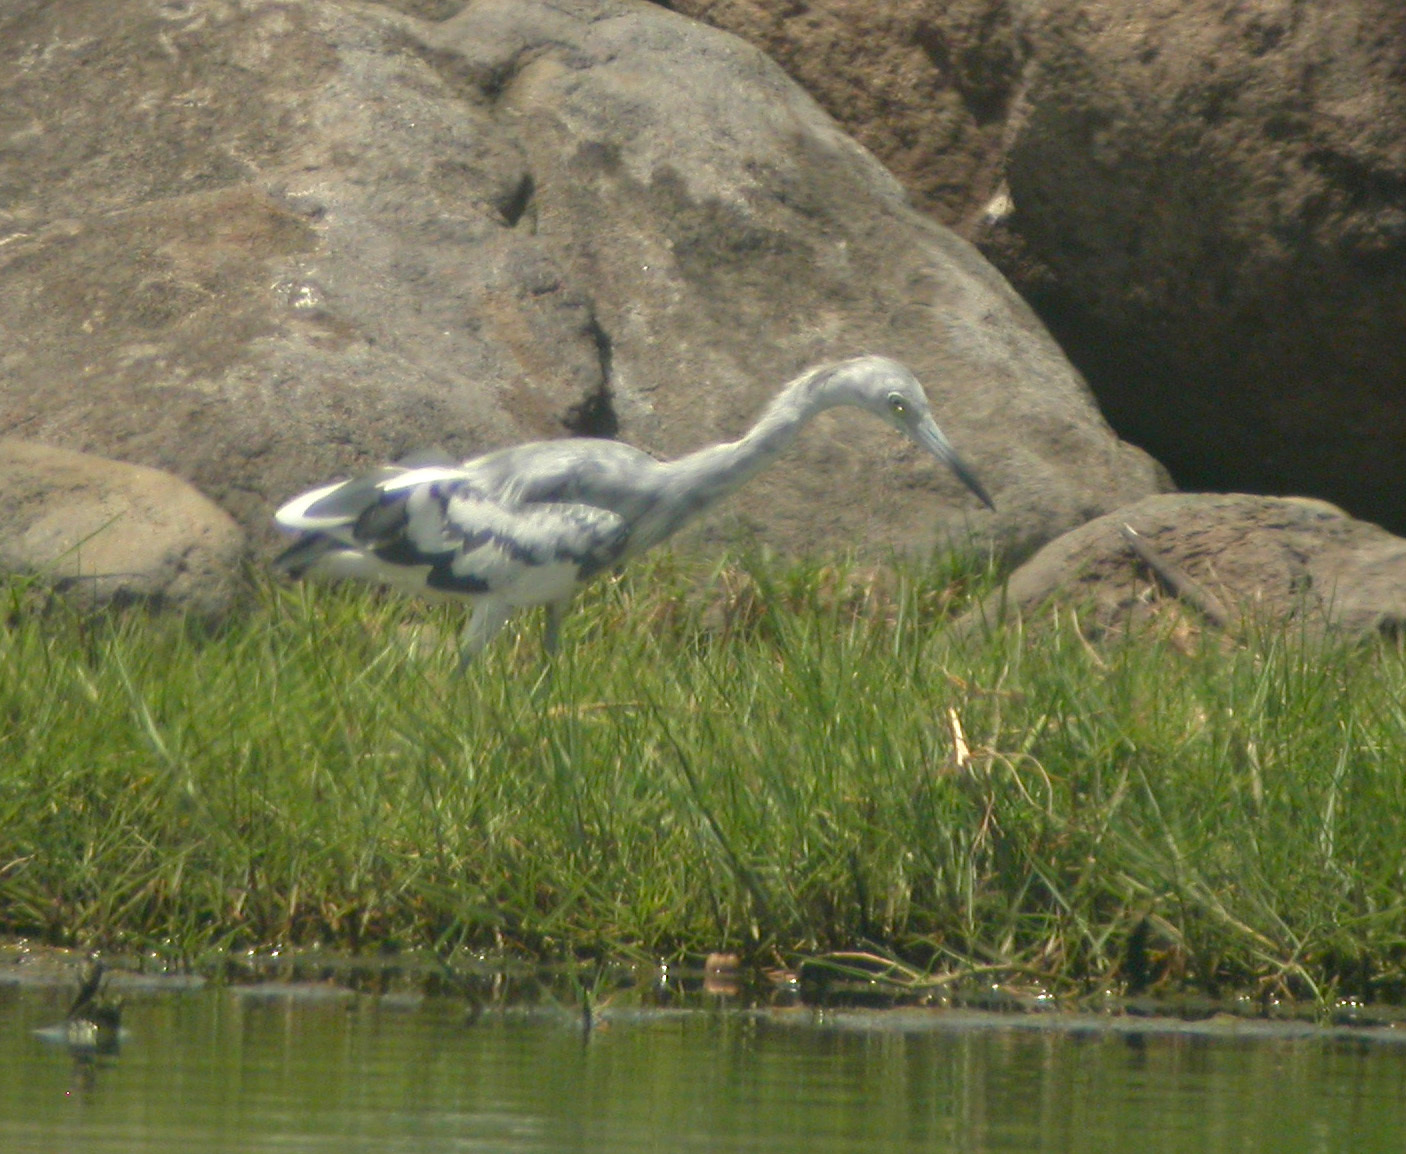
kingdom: Animalia
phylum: Chordata
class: Aves
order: Pelecaniformes
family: Ardeidae
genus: Egretta
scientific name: Egretta caerulea
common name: Little blue heron
